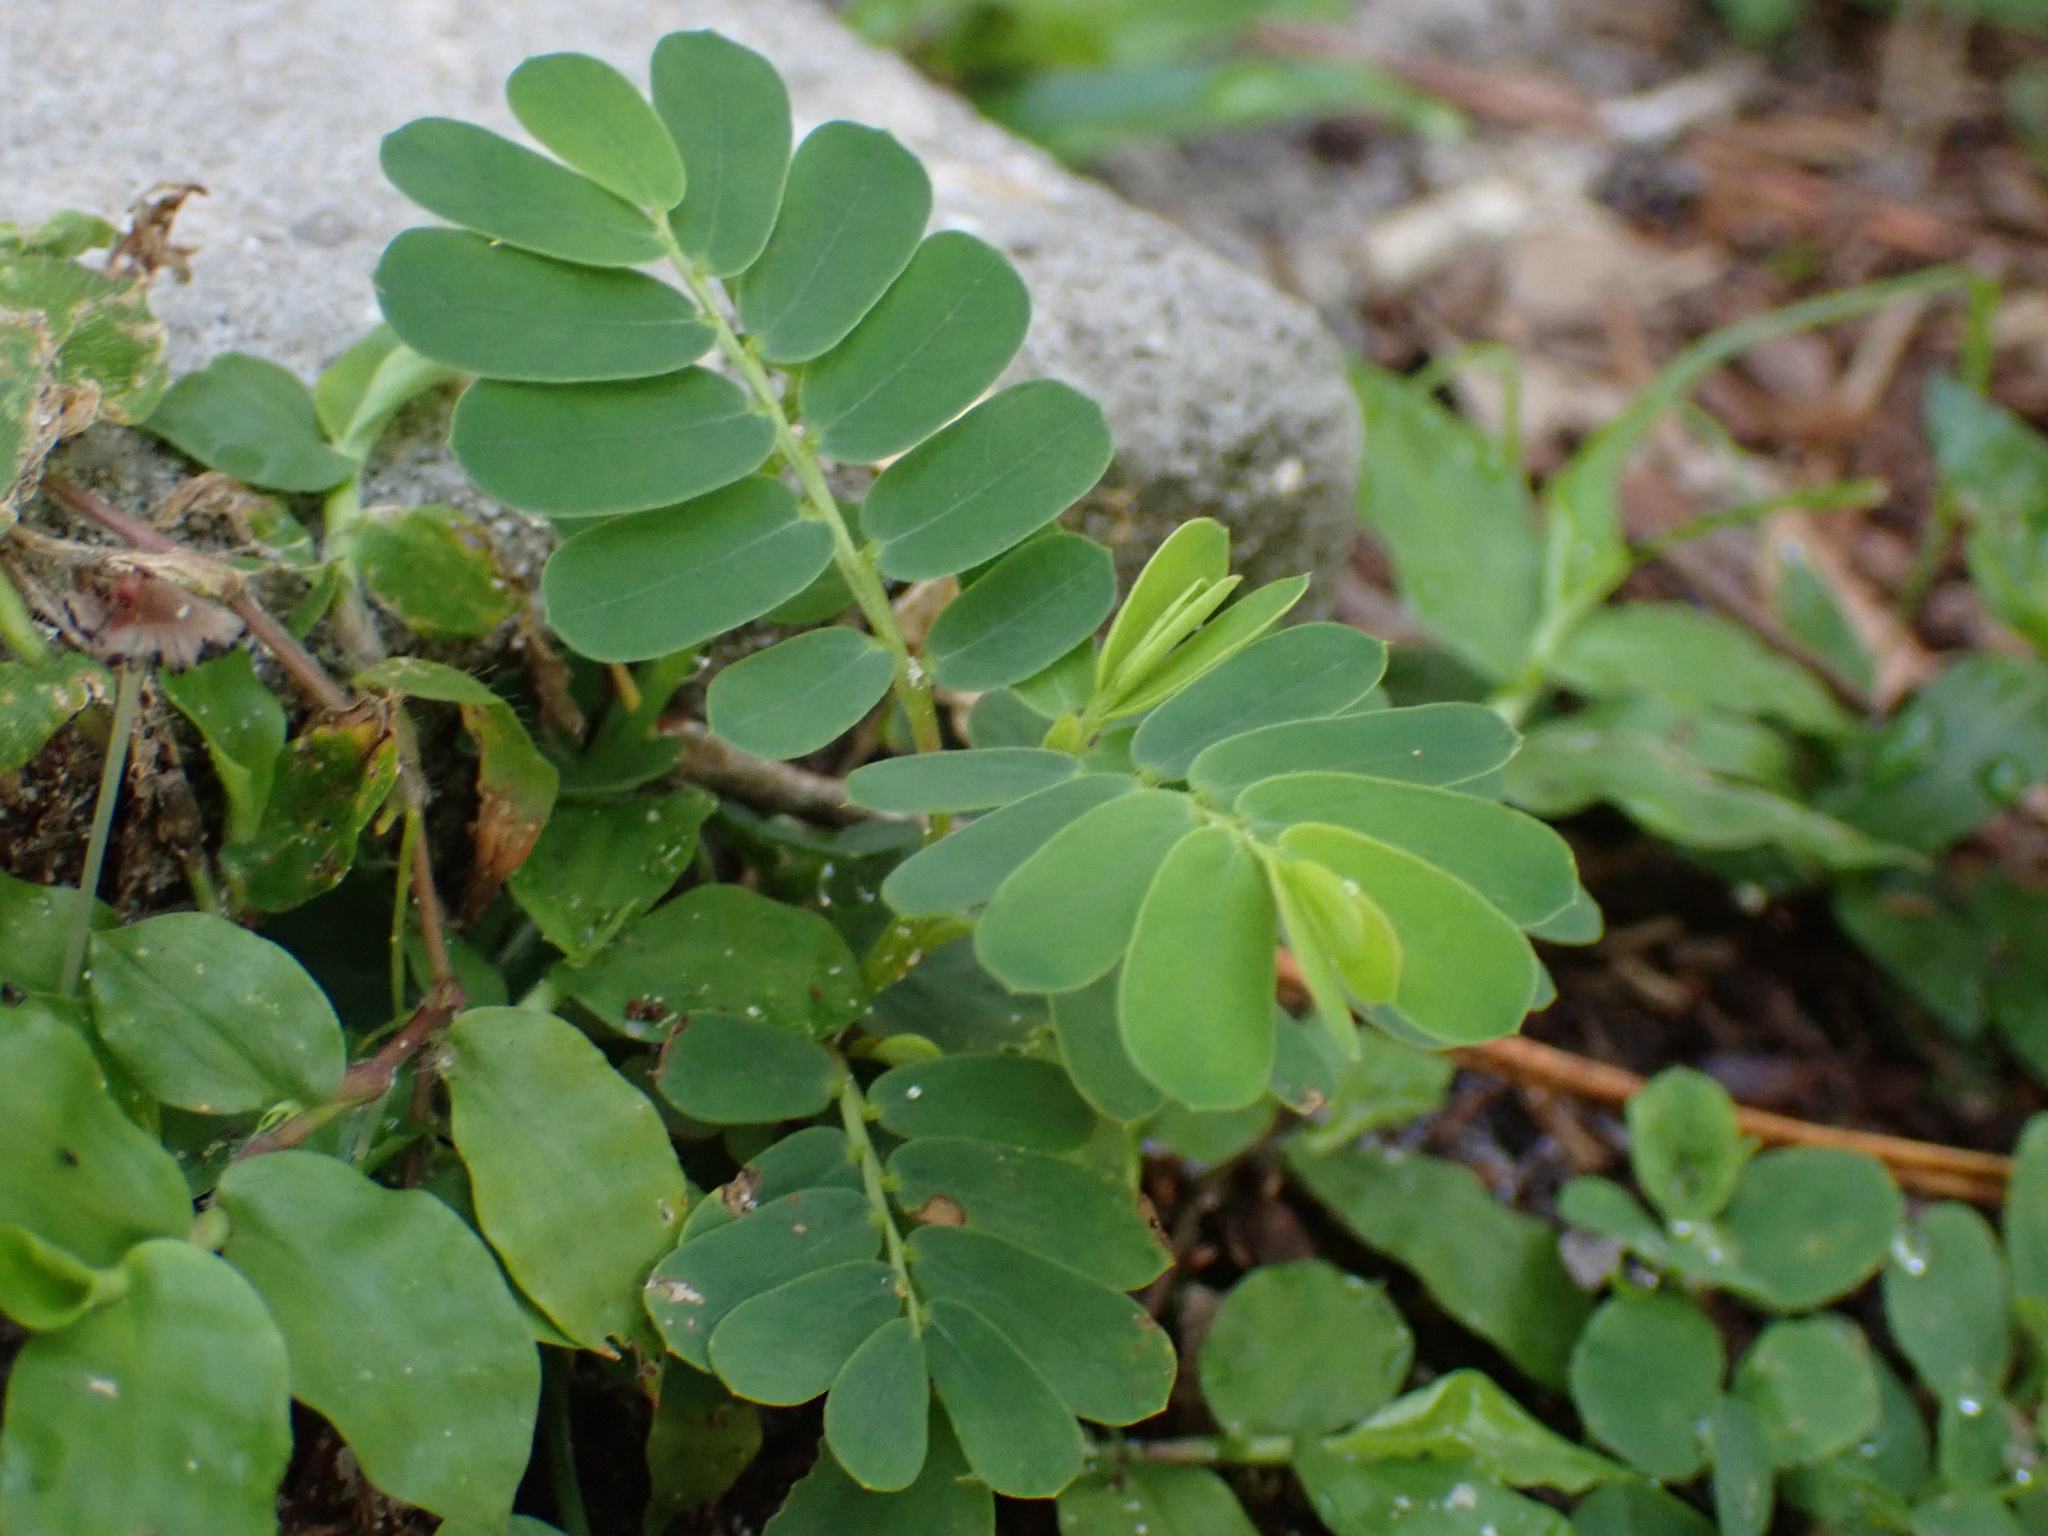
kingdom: Plantae
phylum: Tracheophyta
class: Magnoliopsida
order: Malpighiales
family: Phyllanthaceae
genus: Phyllanthus
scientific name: Phyllanthus urinaria
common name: Chamber bitter
